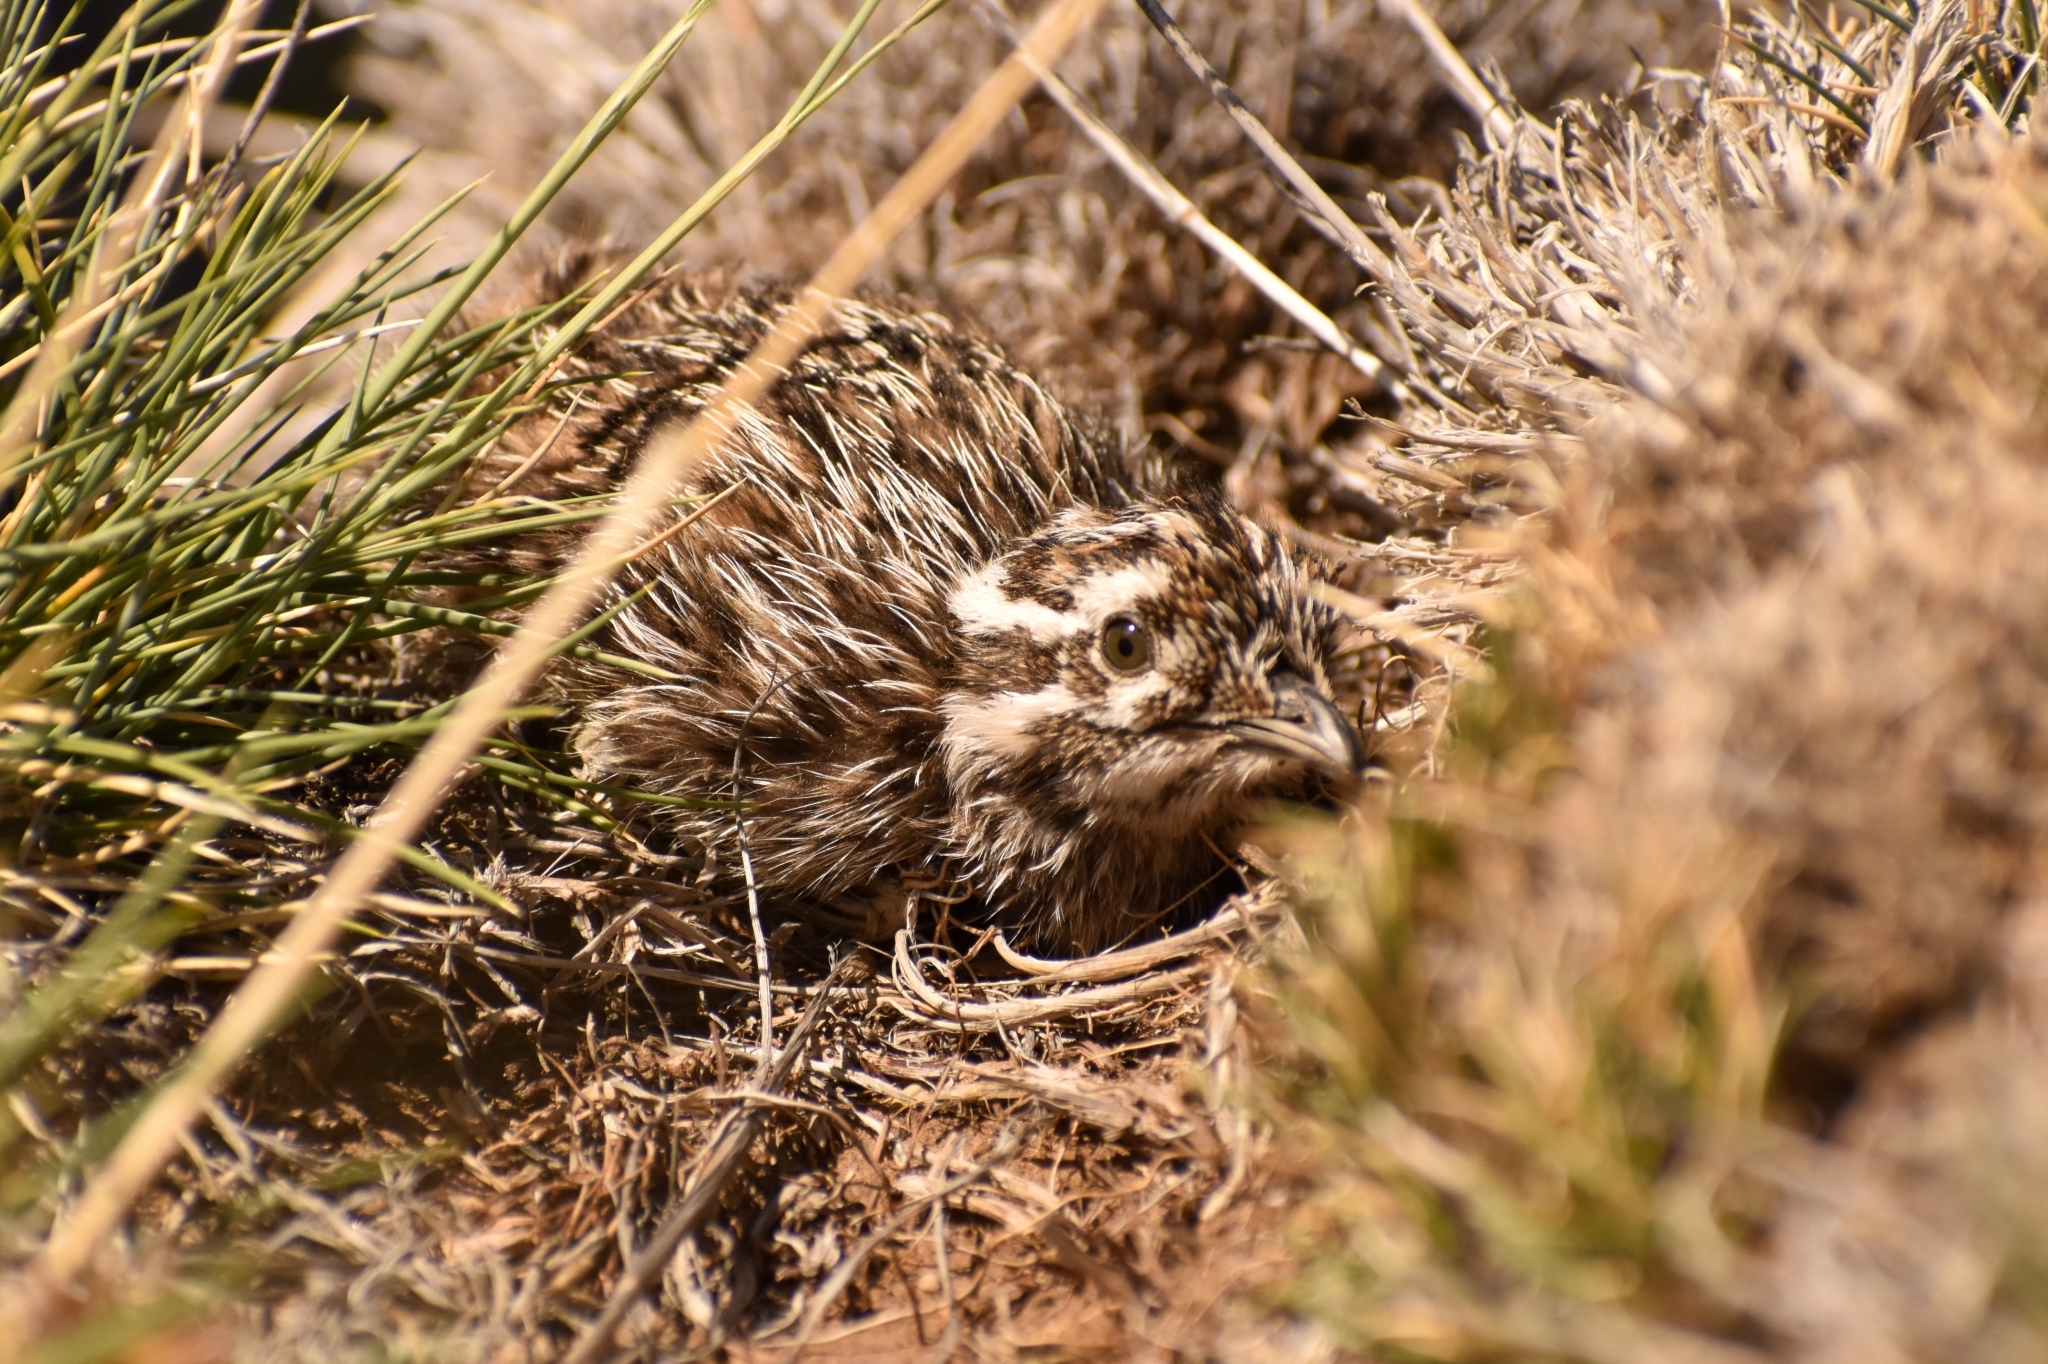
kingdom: Animalia
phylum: Chordata
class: Aves
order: Tinamiformes
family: Tinamidae
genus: Tinamotis
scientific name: Tinamotis ingoufi
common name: Patagonian tinamou
